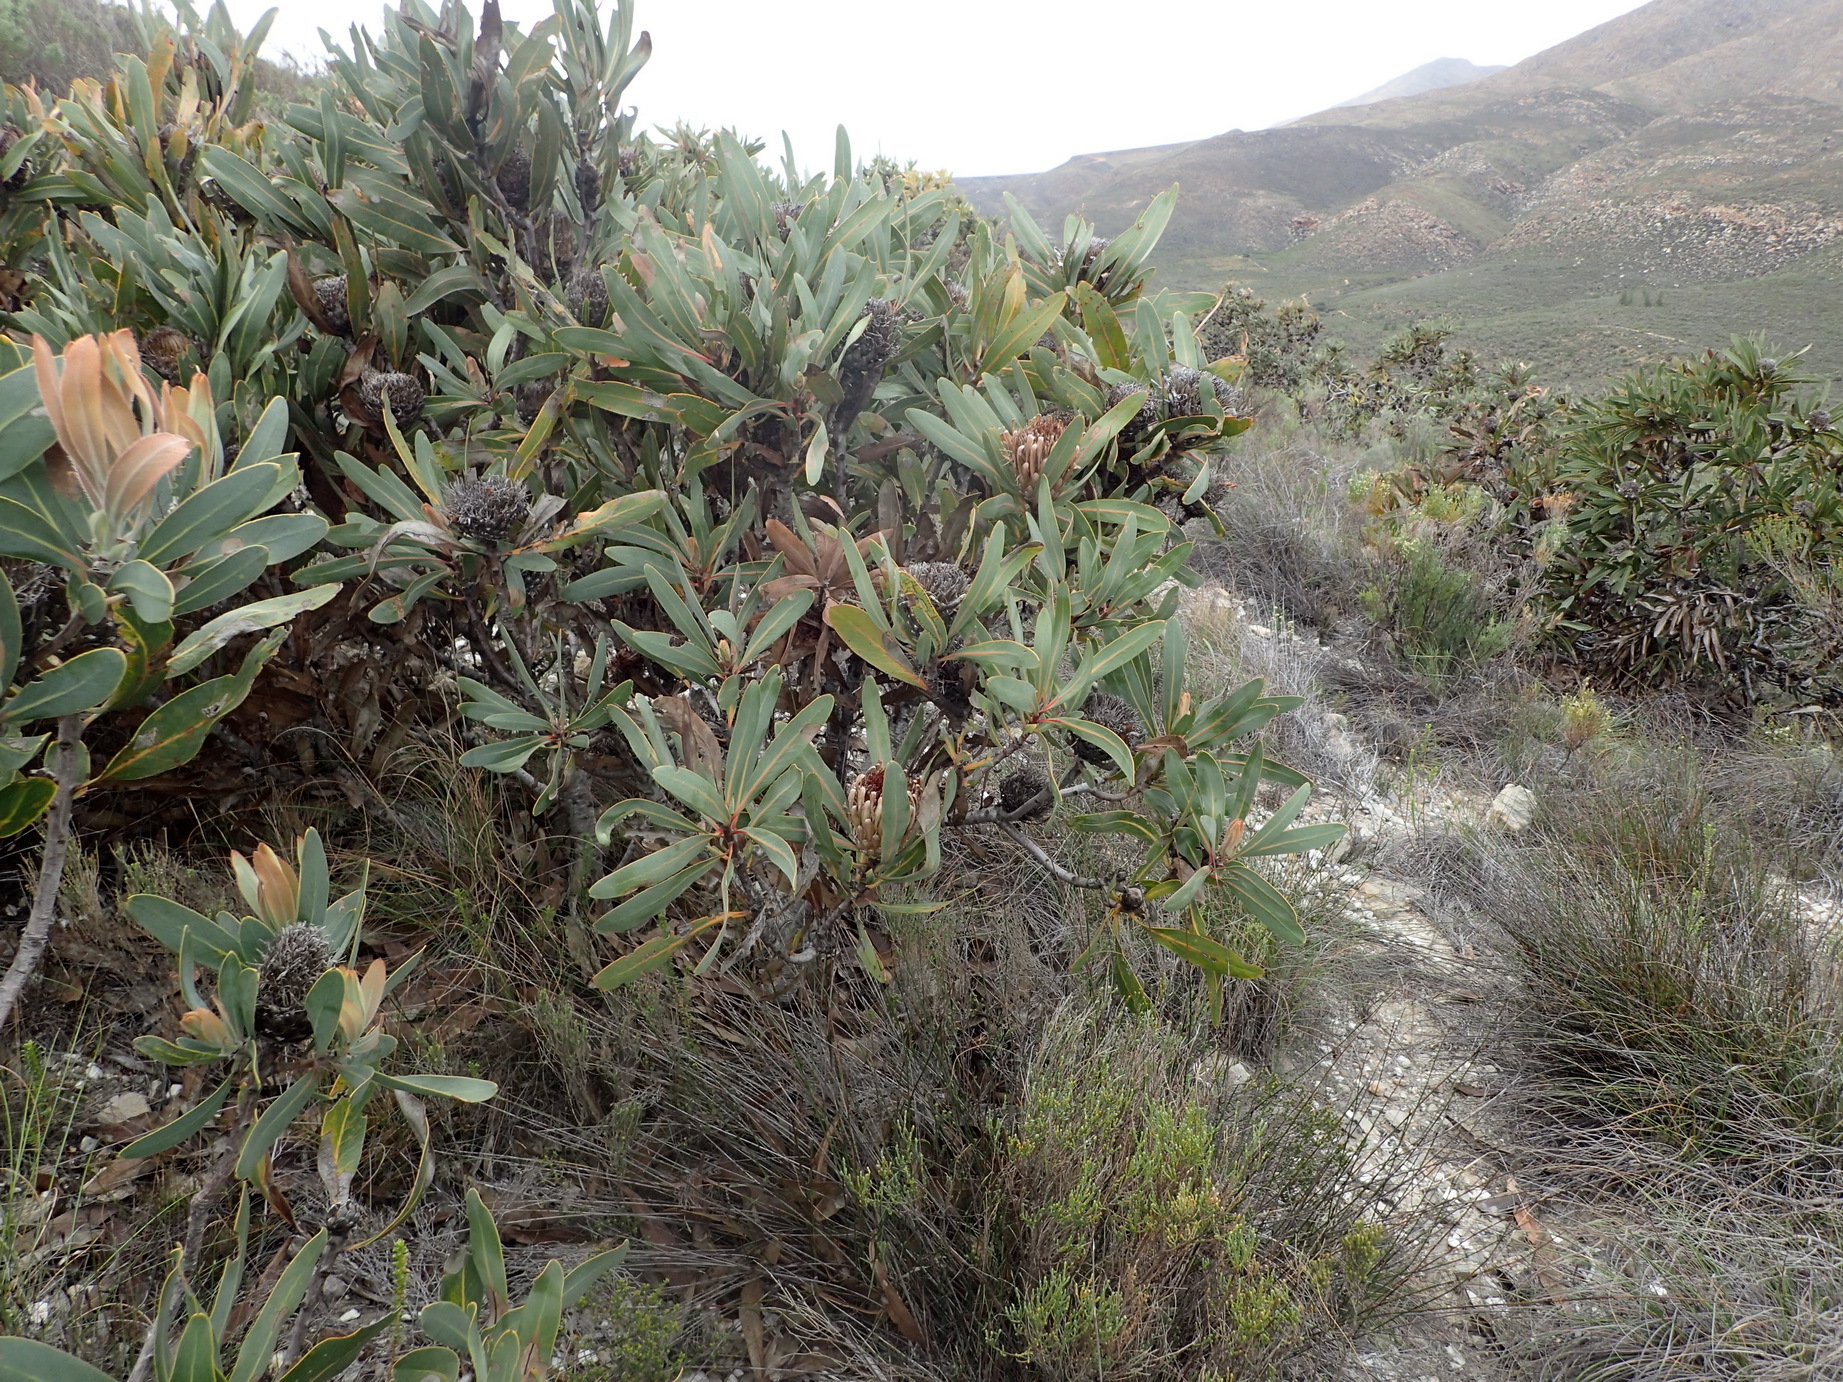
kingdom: Plantae
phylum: Tracheophyta
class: Magnoliopsida
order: Proteales
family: Proteaceae
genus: Protea
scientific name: Protea lorifolia
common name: Strap-leaved protea
